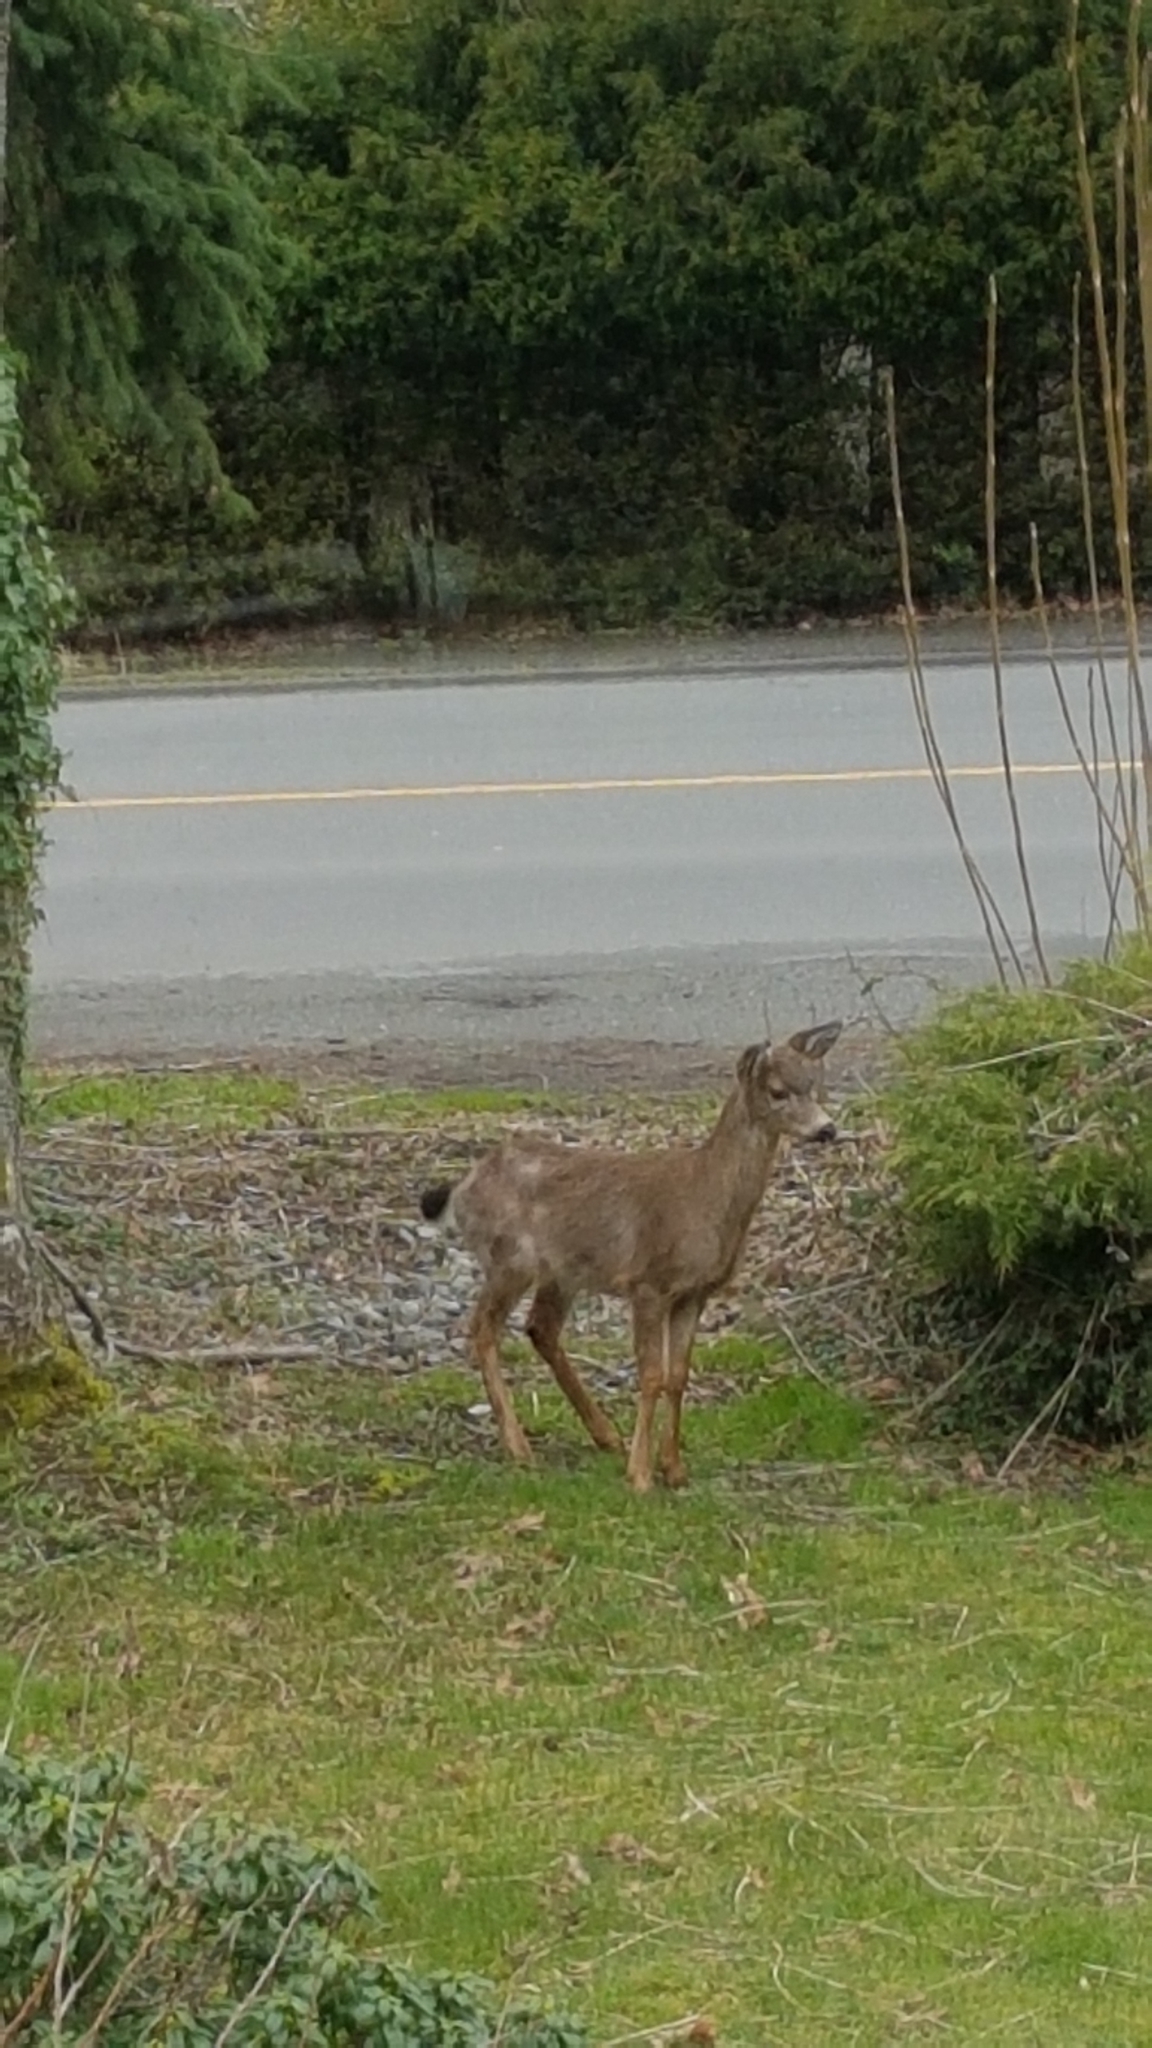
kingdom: Animalia
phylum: Chordata
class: Mammalia
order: Artiodactyla
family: Cervidae
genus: Odocoileus
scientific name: Odocoileus hemionus
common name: Mule deer
